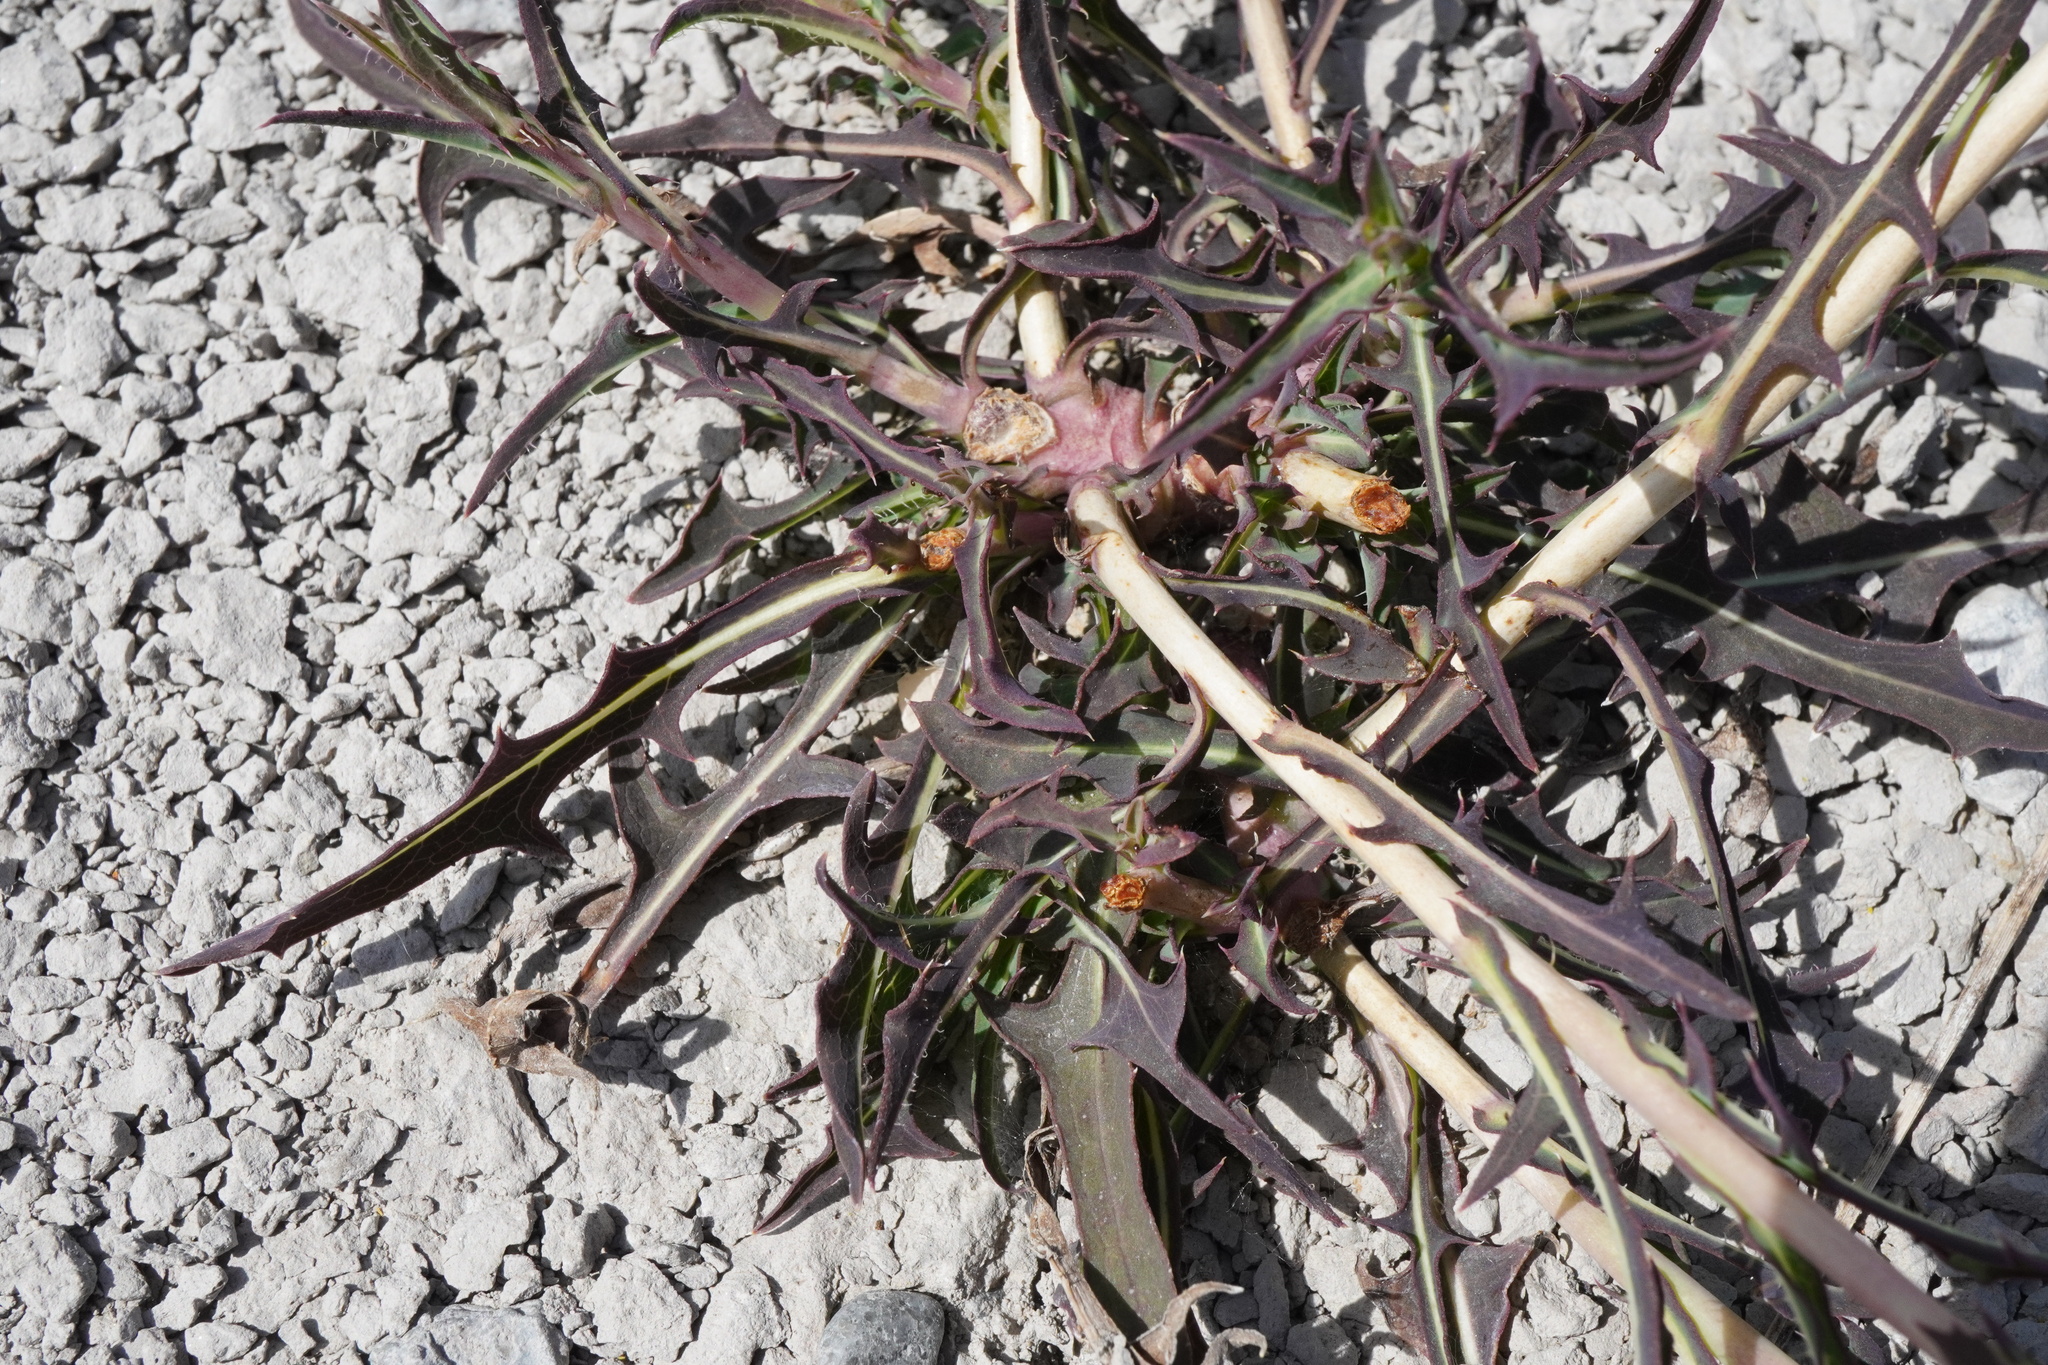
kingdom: Plantae
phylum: Tracheophyta
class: Magnoliopsida
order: Asterales
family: Asteraceae
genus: Lactuca
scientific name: Lactuca saligna
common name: Wild lettuce
